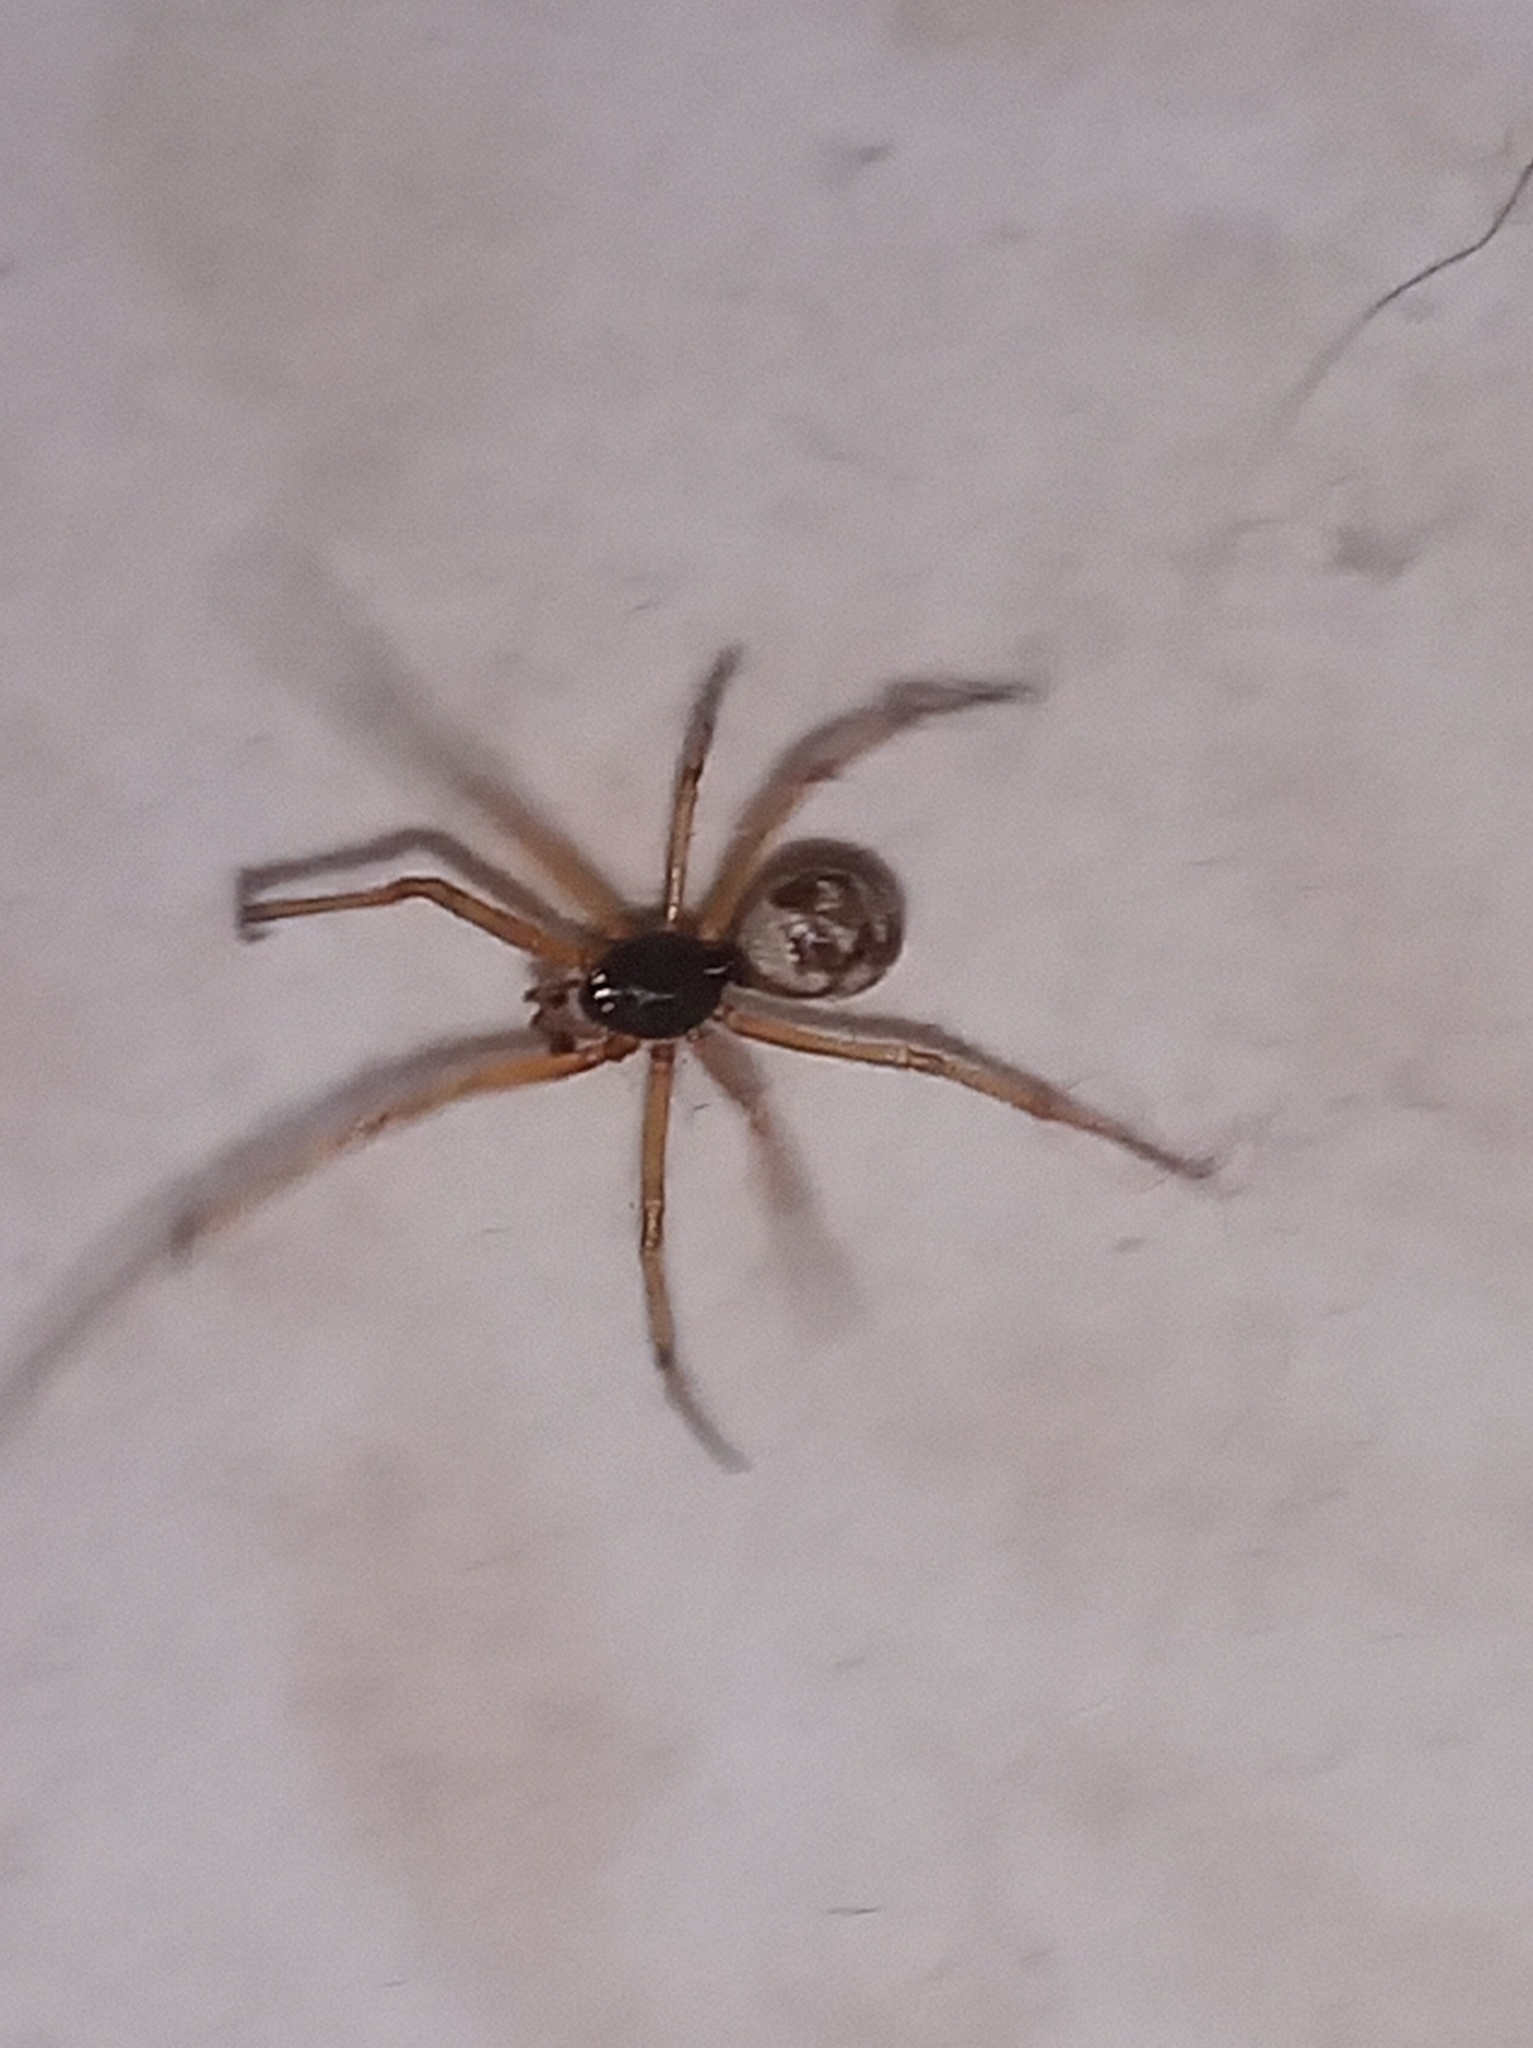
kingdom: Animalia
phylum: Arthropoda
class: Arachnida
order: Araneae
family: Theridiidae
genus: Steatoda
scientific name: Steatoda triangulosa
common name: Triangulate bud spider
